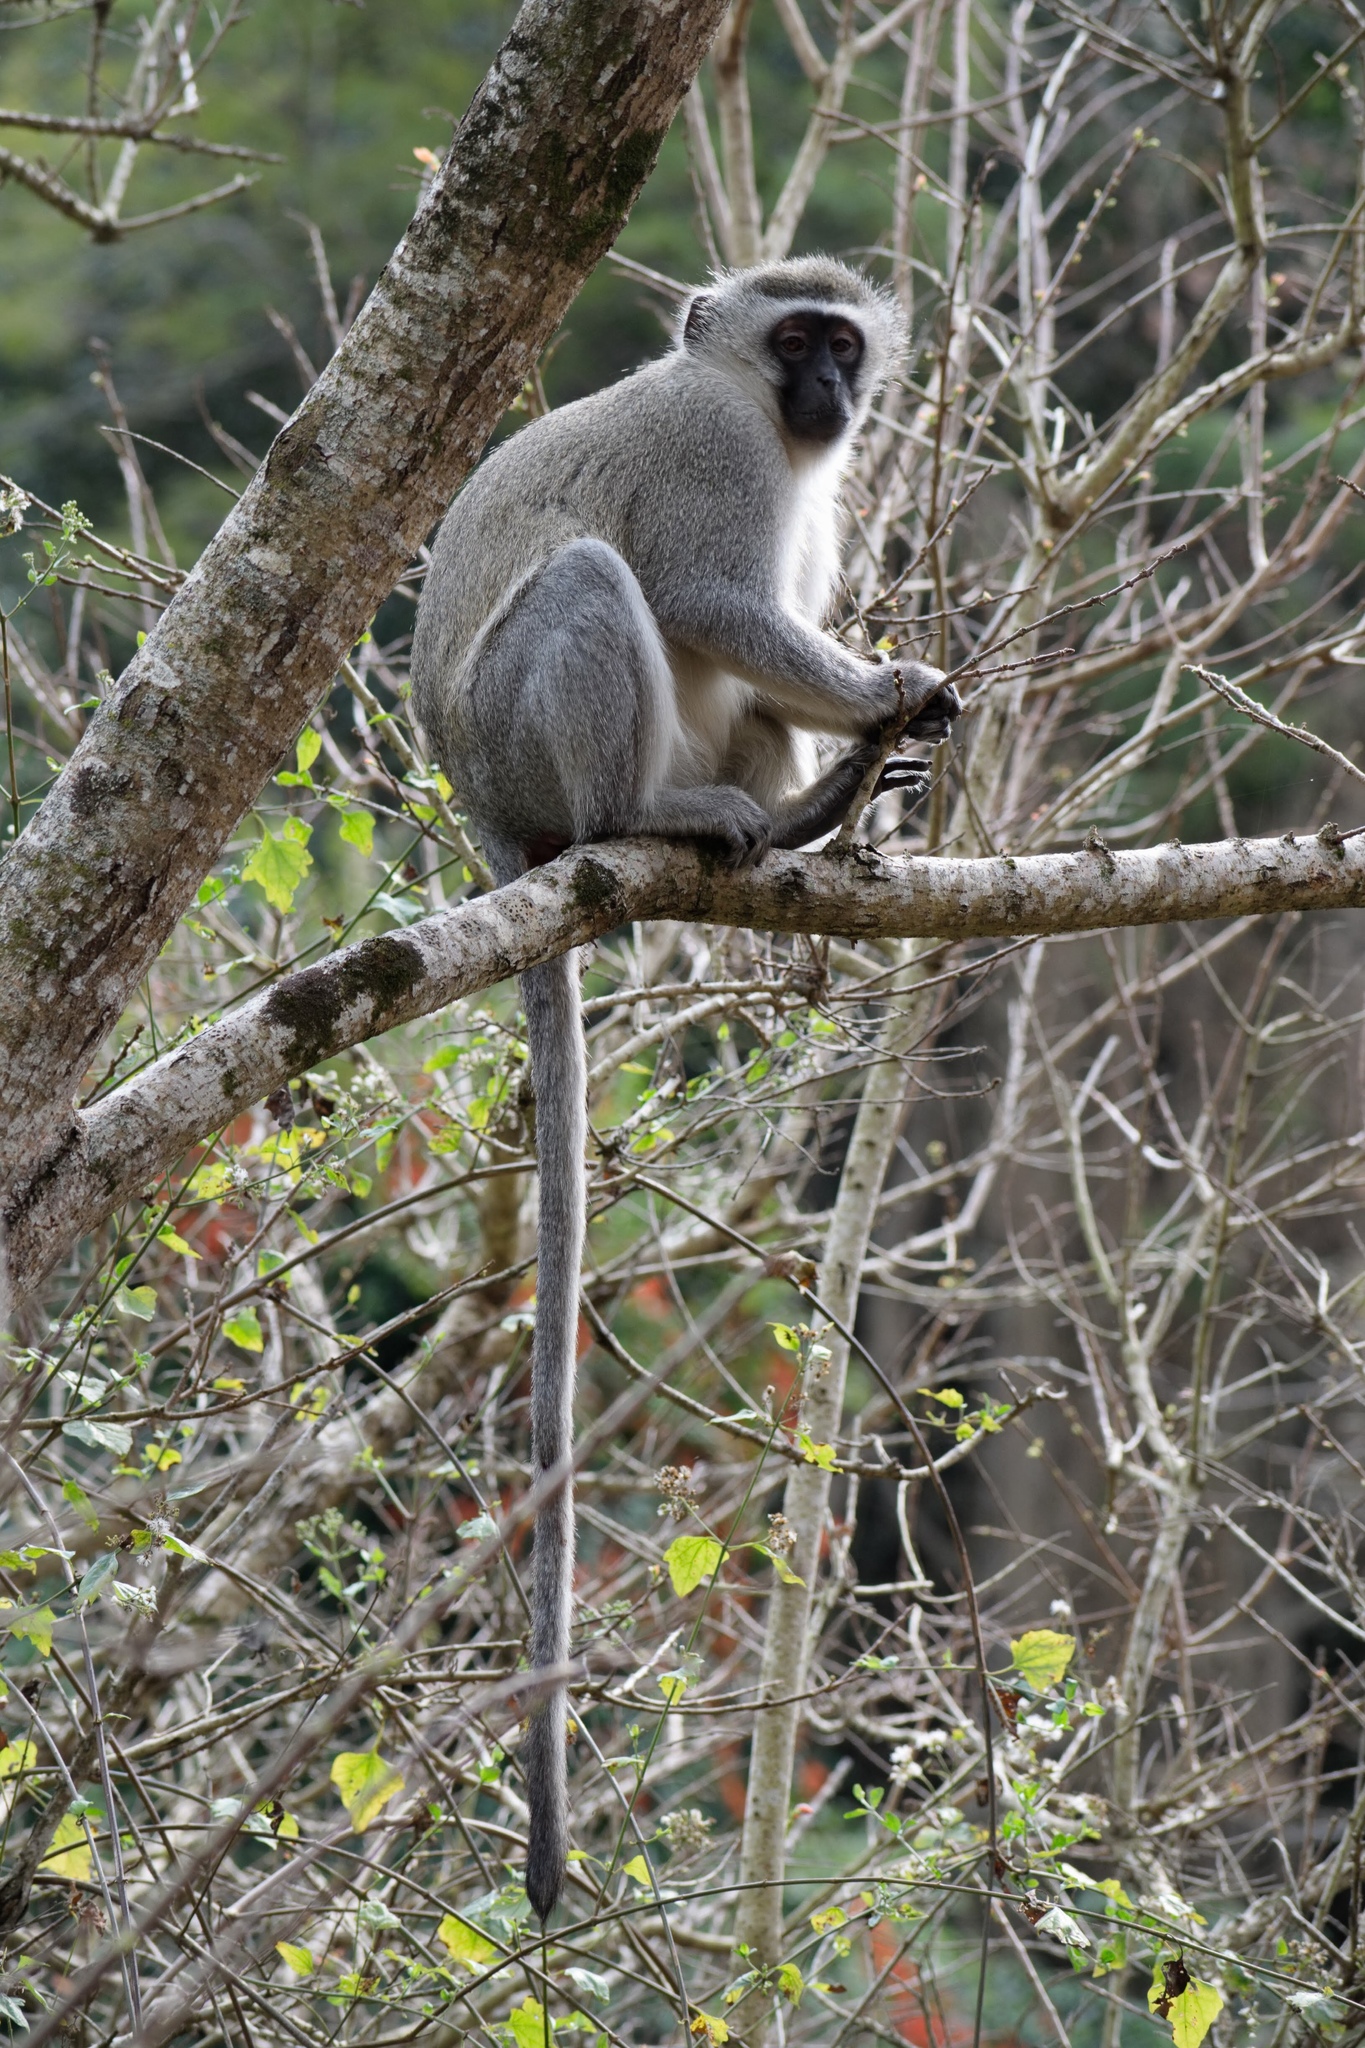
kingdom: Animalia
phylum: Chordata
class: Mammalia
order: Primates
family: Cercopithecidae
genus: Chlorocebus
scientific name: Chlorocebus pygerythrus
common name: Vervet monkey
